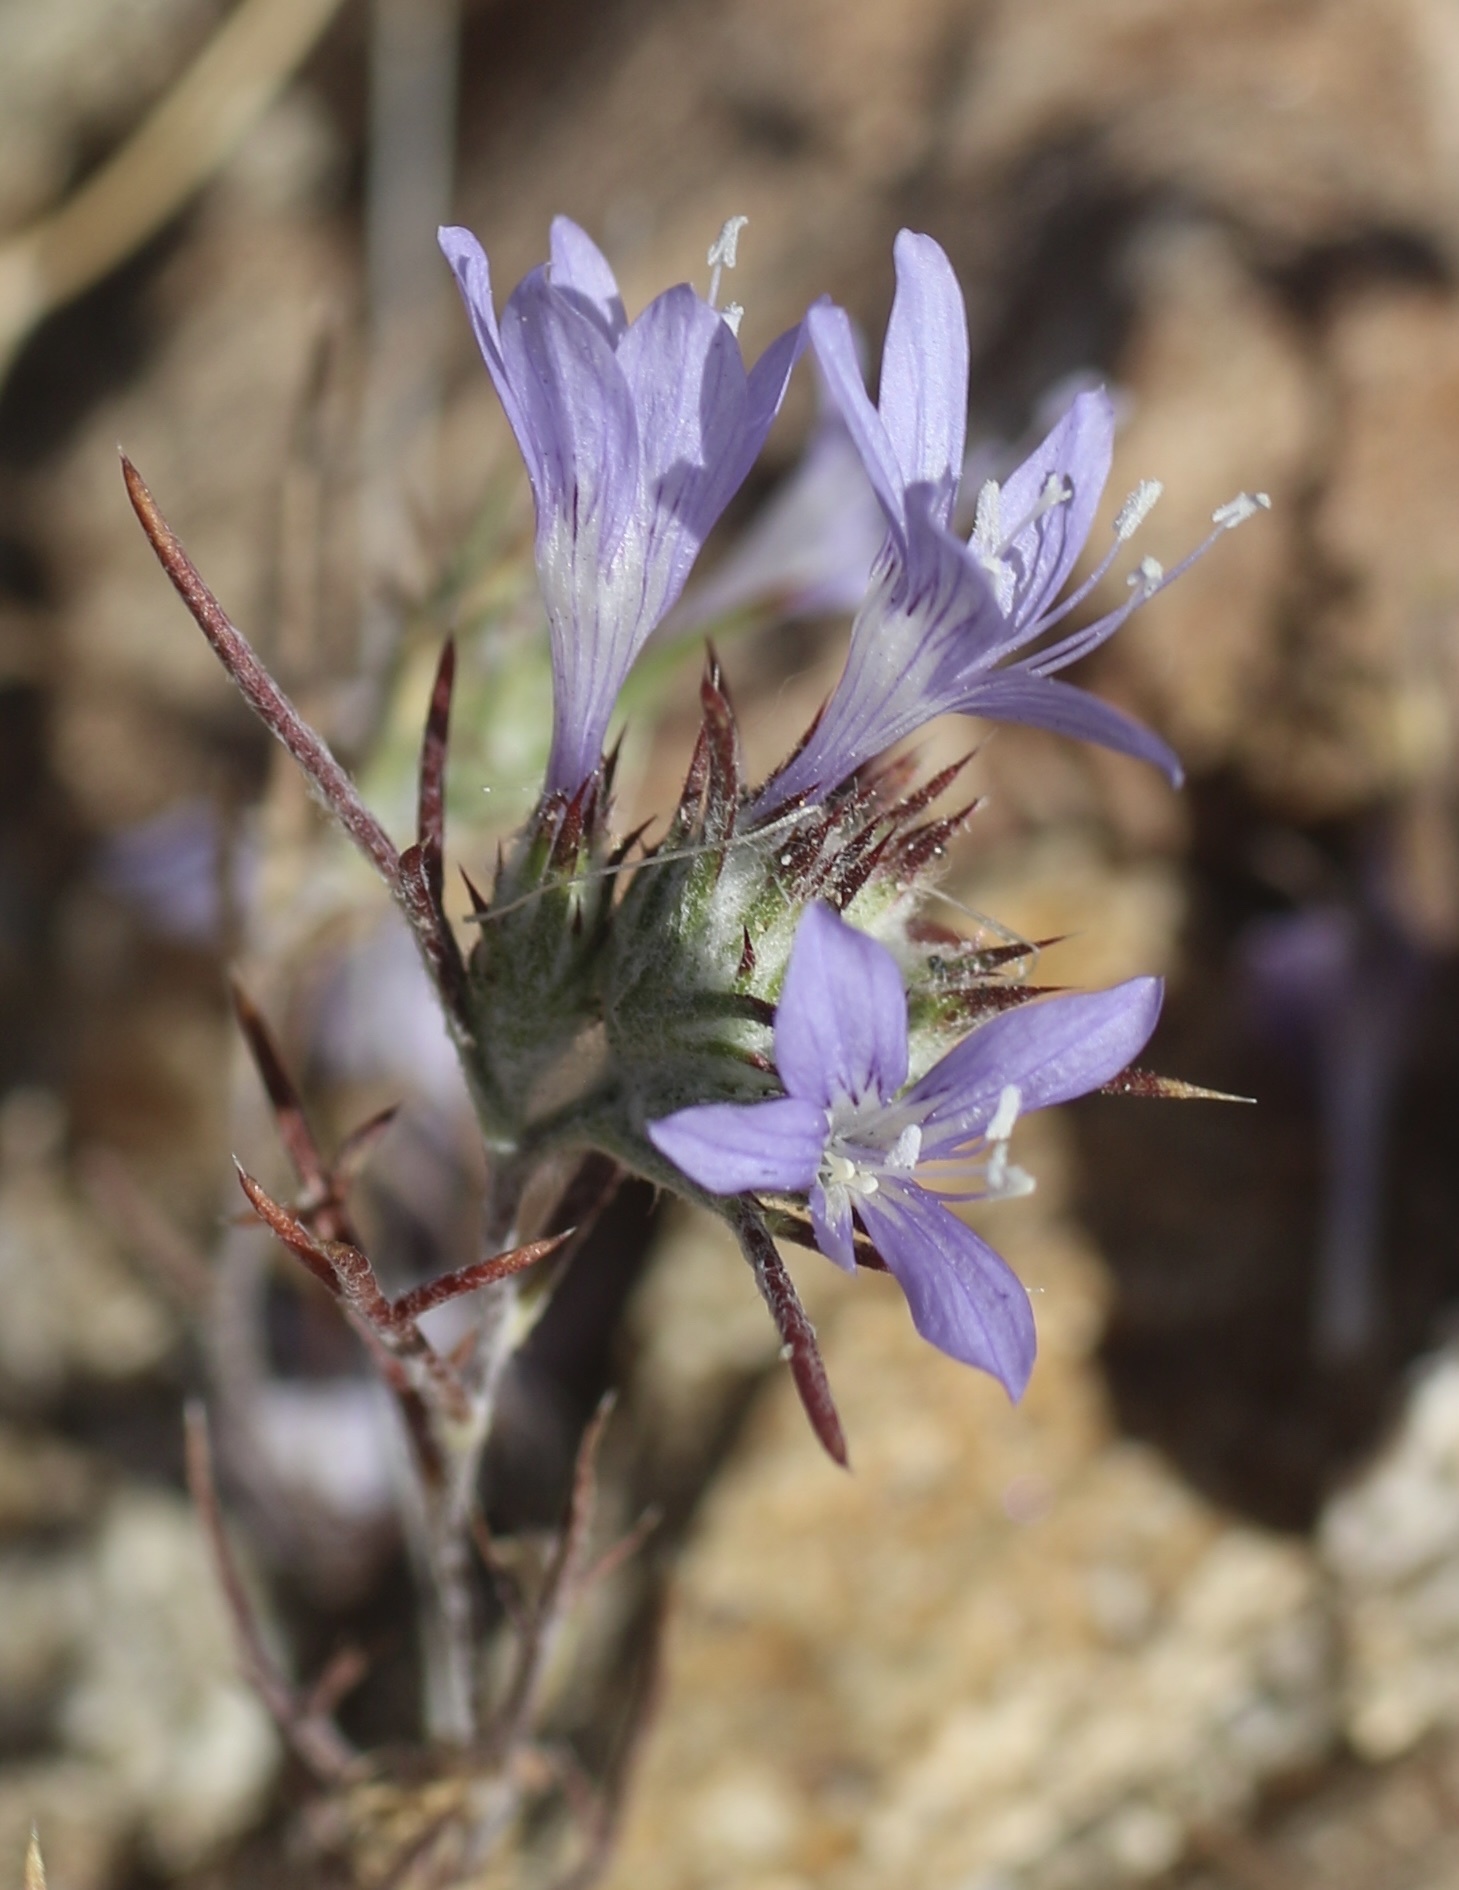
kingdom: Plantae
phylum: Tracheophyta
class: Magnoliopsida
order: Ericales
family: Polemoniaceae
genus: Eriastrum
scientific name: Eriastrum eremicum
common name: Desert eriastrum
